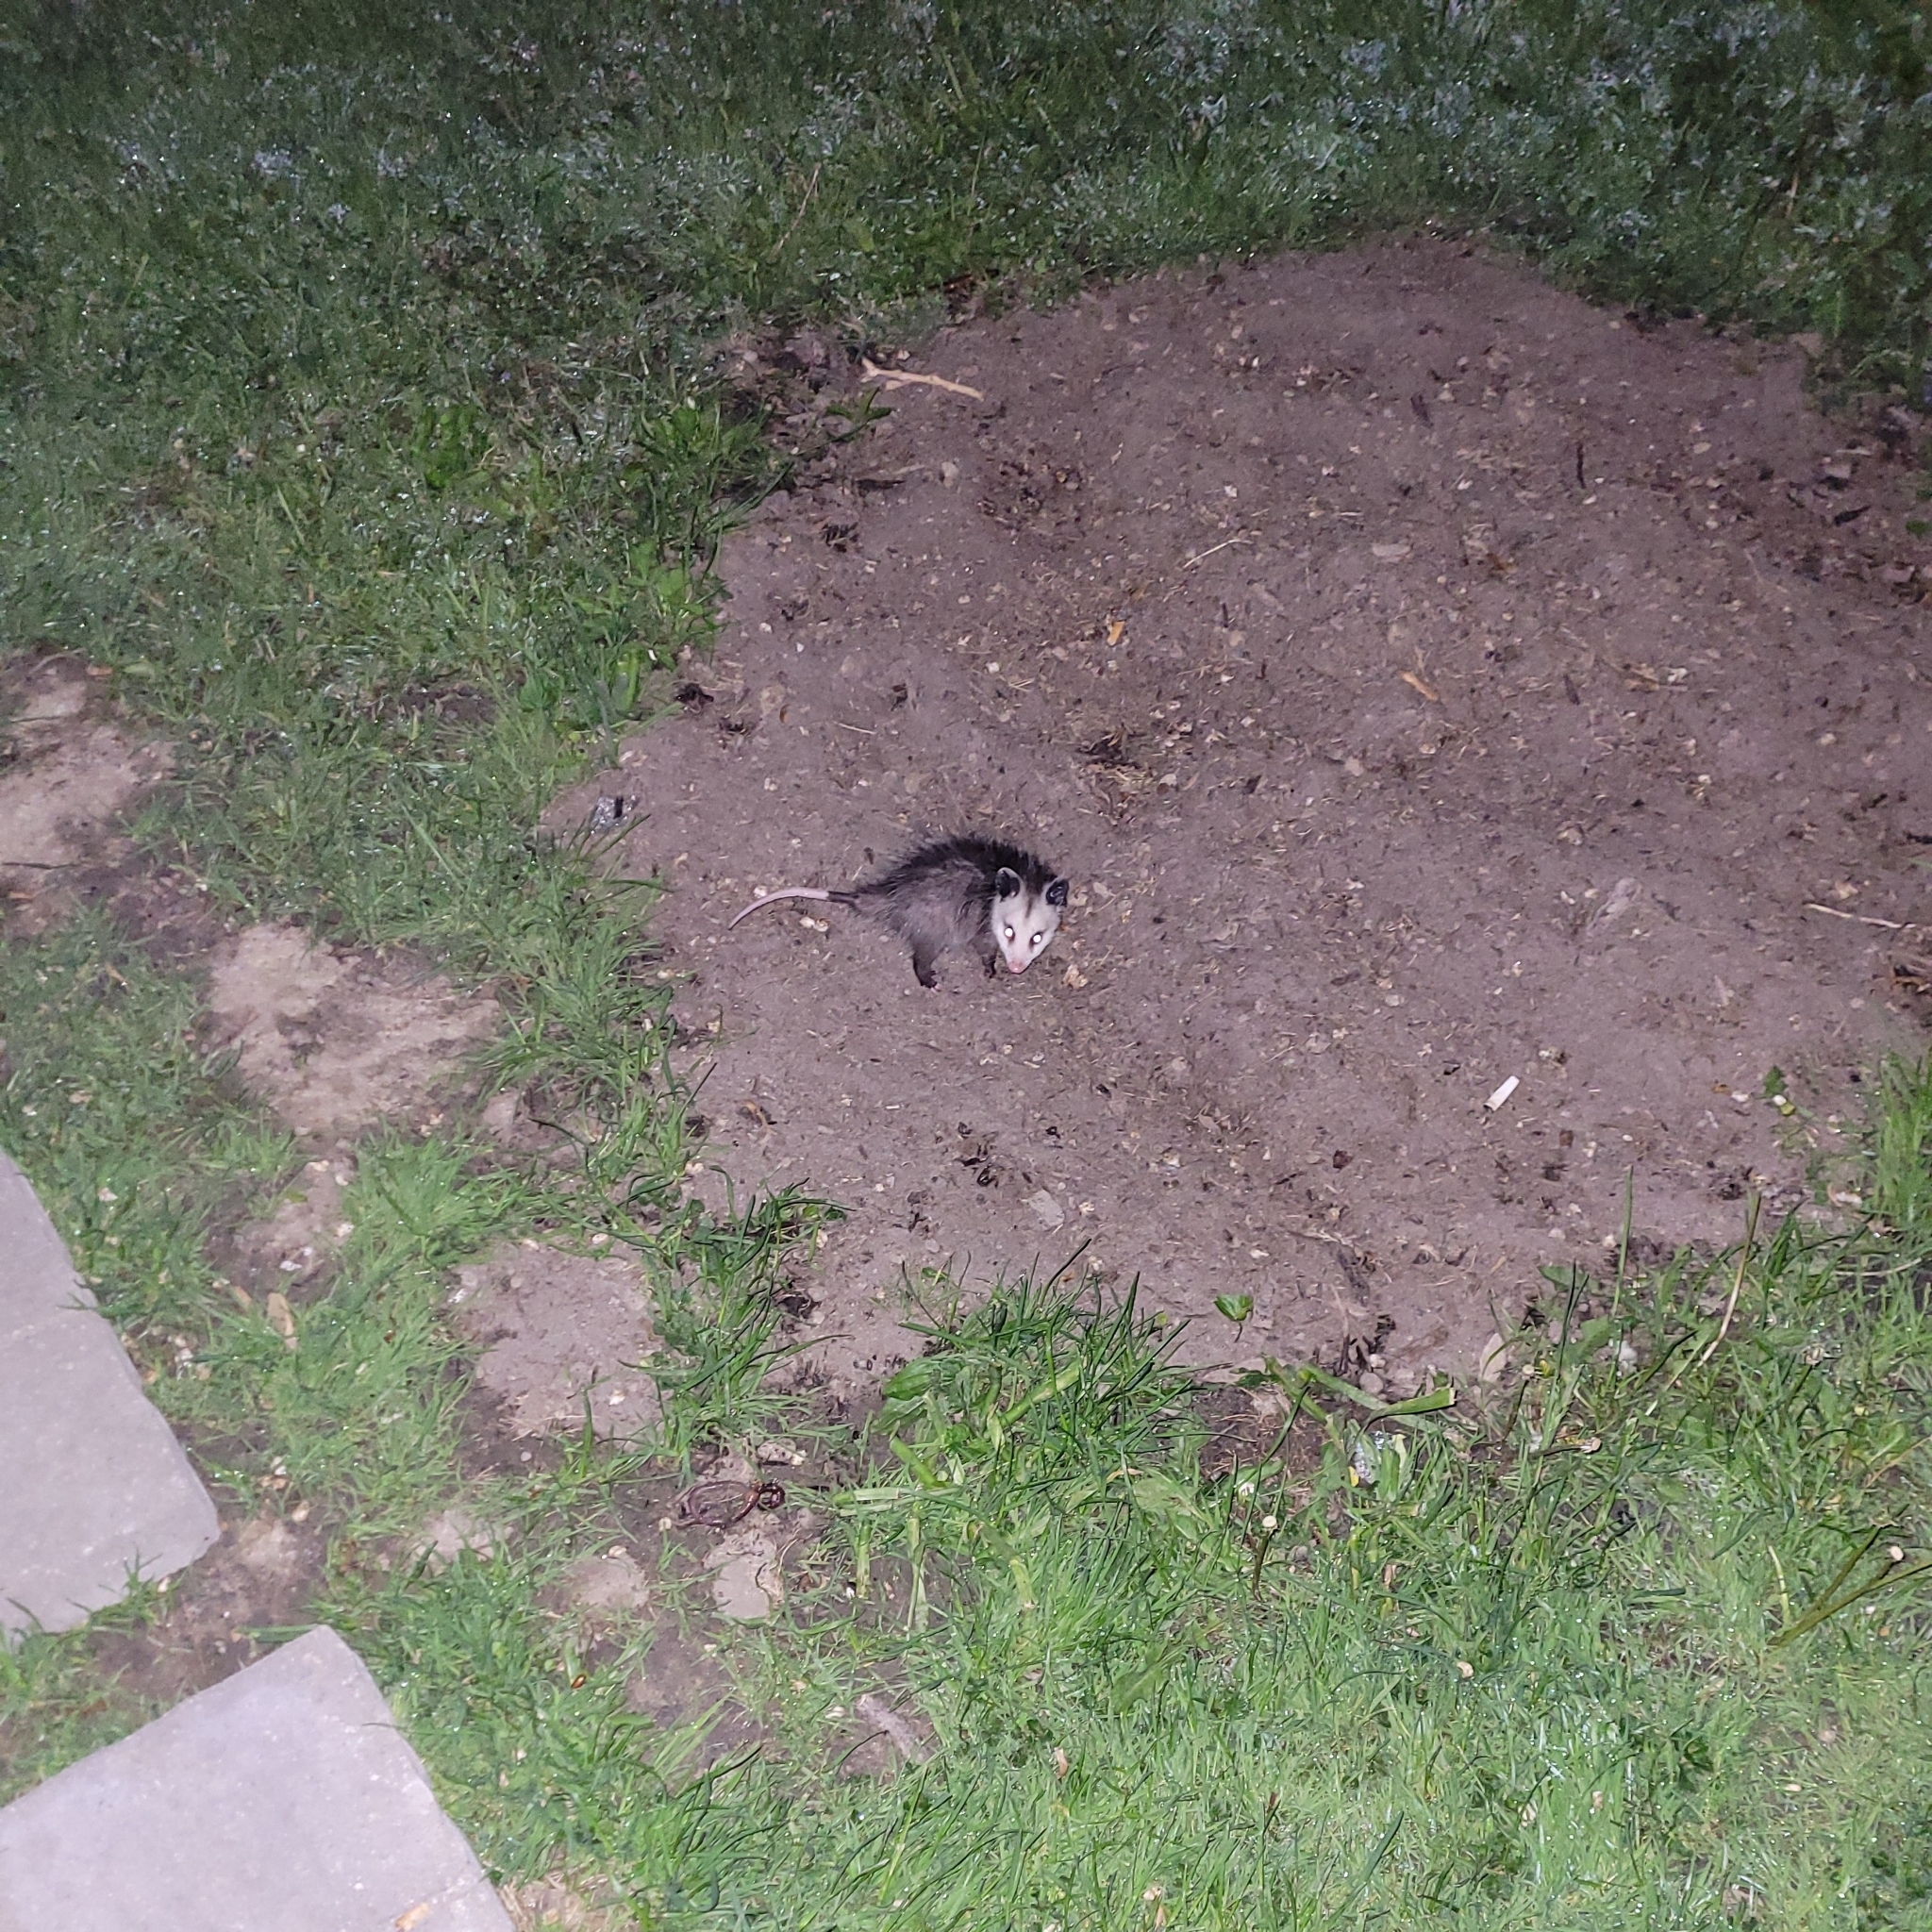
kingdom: Animalia
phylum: Chordata
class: Mammalia
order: Didelphimorphia
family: Didelphidae
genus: Didelphis
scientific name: Didelphis virginiana
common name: Virginia opossum
